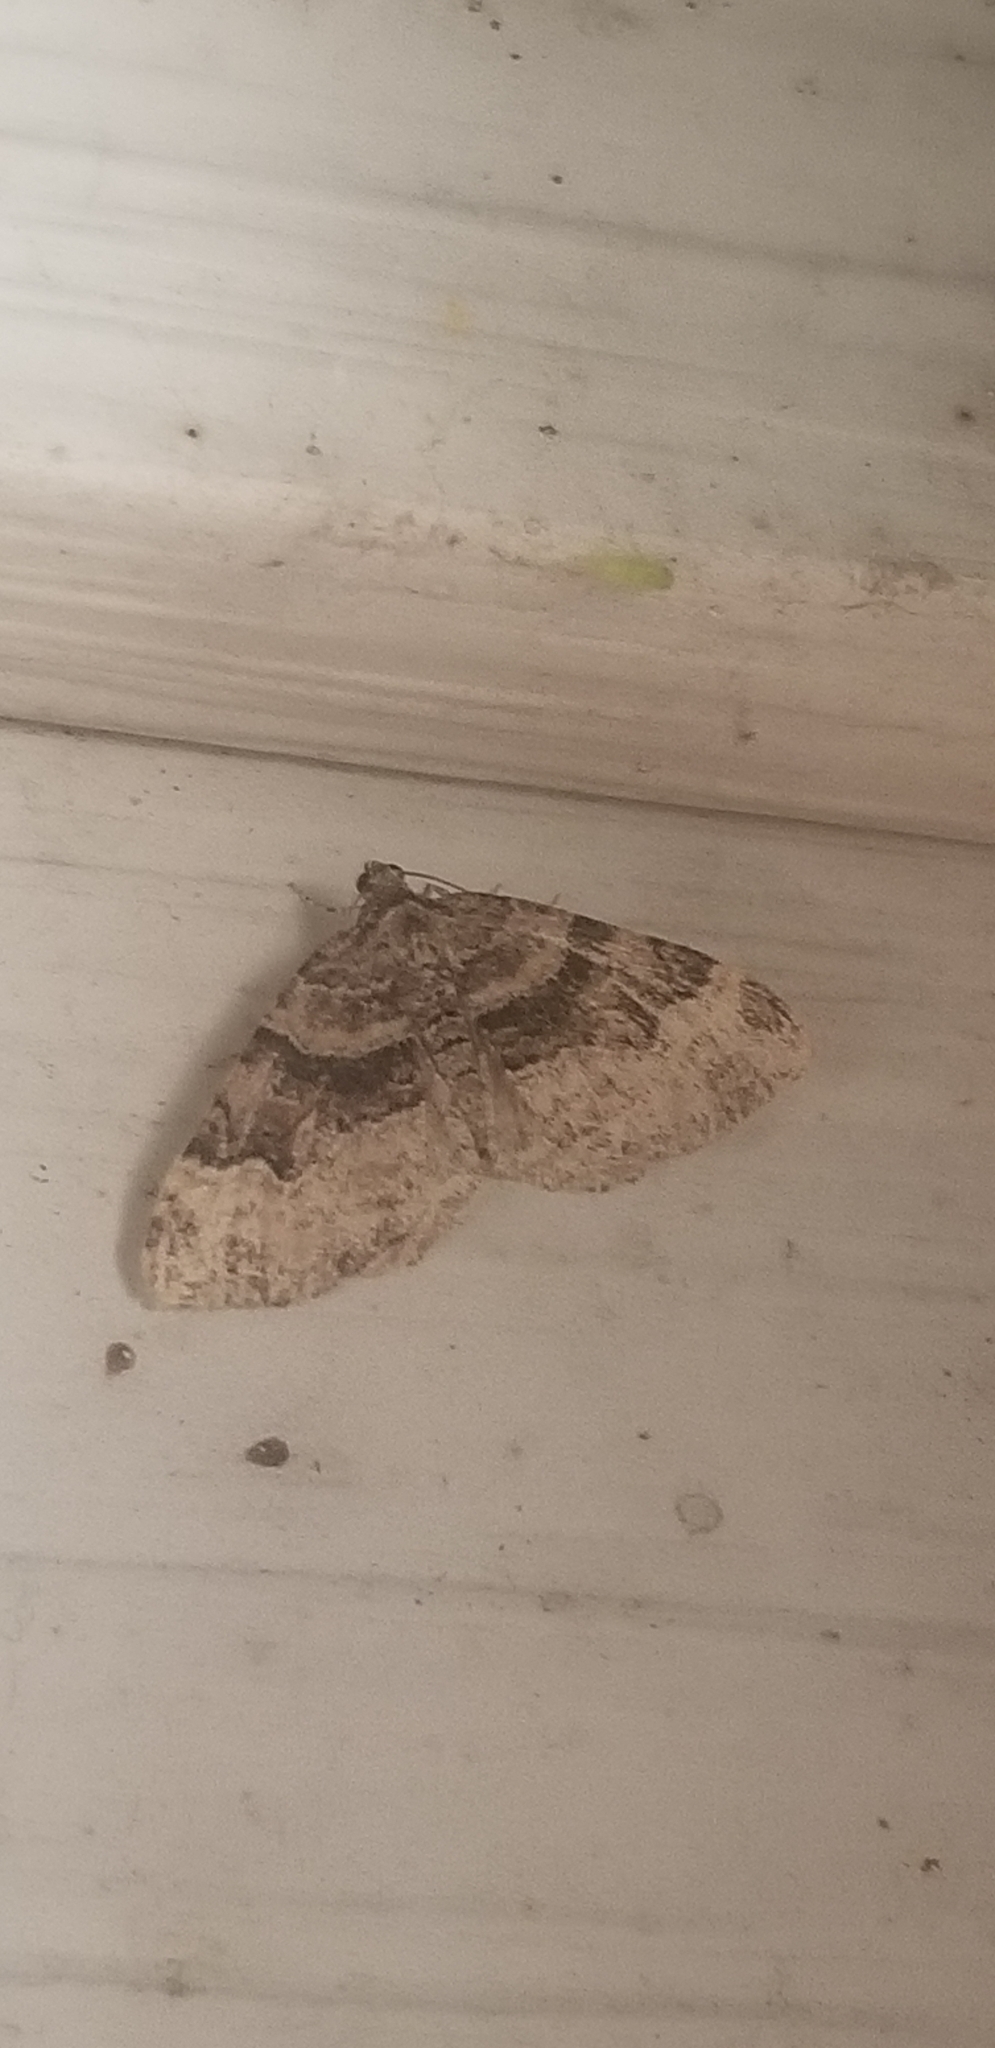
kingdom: Animalia
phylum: Arthropoda
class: Insecta
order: Lepidoptera
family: Geometridae
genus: Xanthorhoe
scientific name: Xanthorhoe lacustrata
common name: Toothed brown carpet
